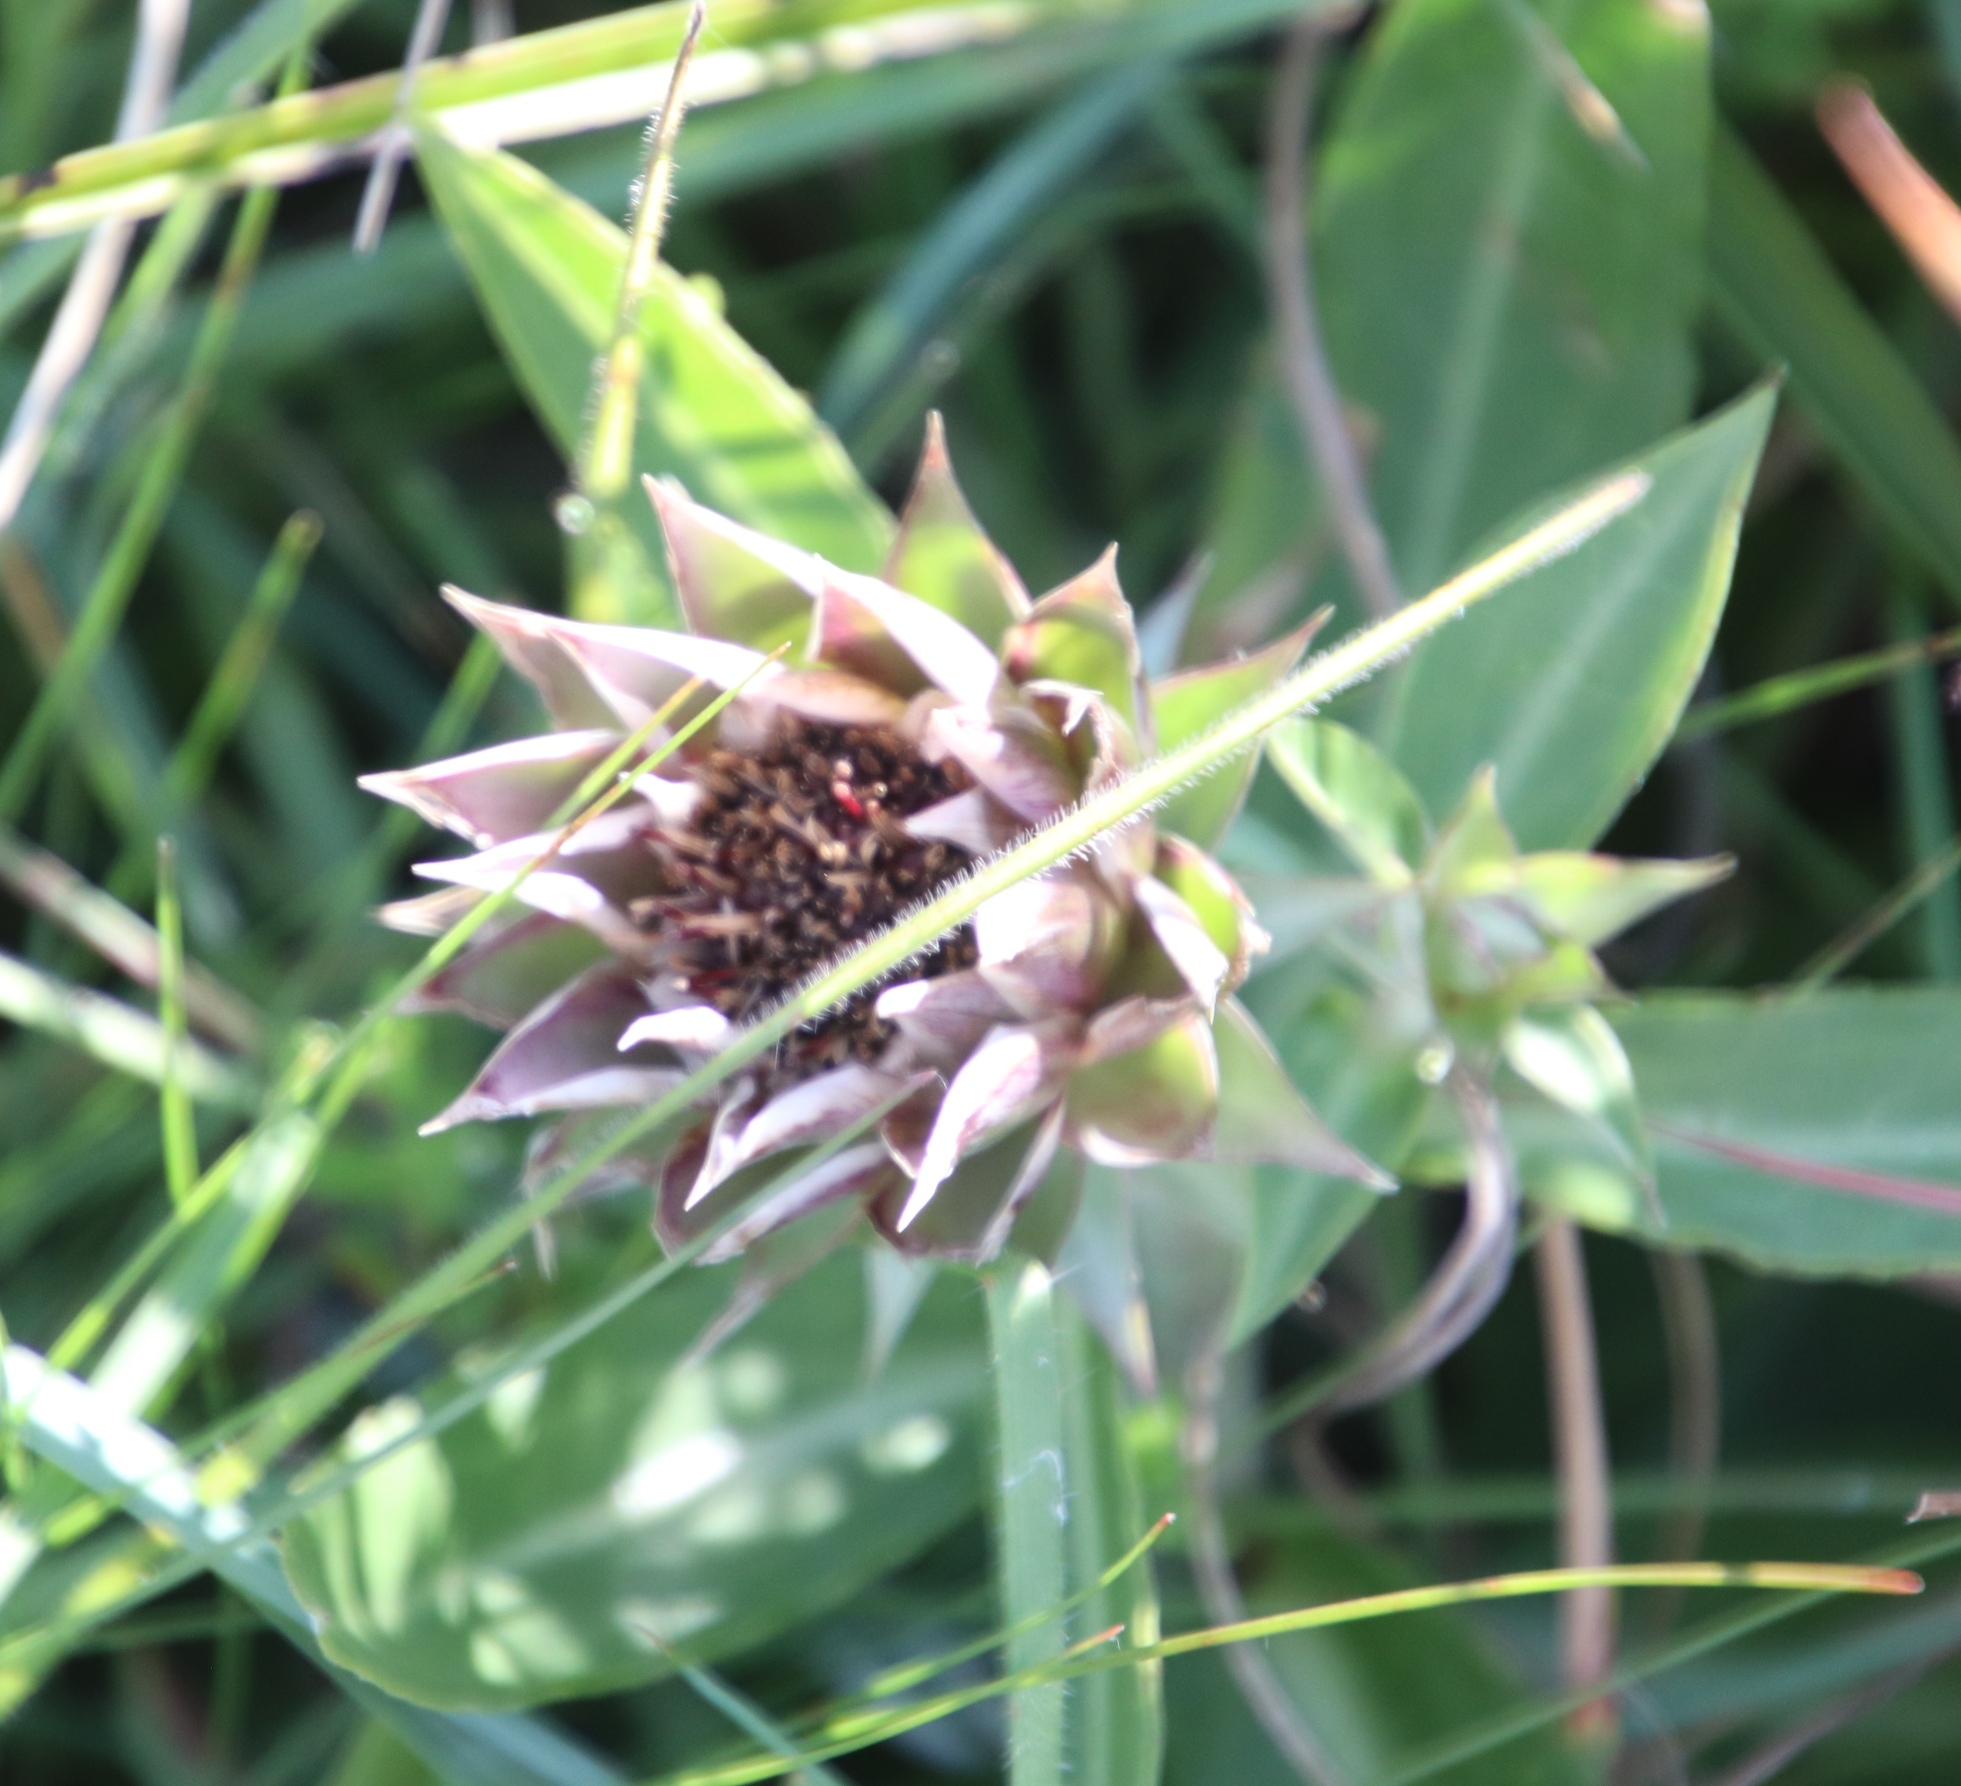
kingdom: Plantae
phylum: Tracheophyta
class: Magnoliopsida
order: Asterales
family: Asteraceae
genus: Macledium
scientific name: Macledium zeyheri
